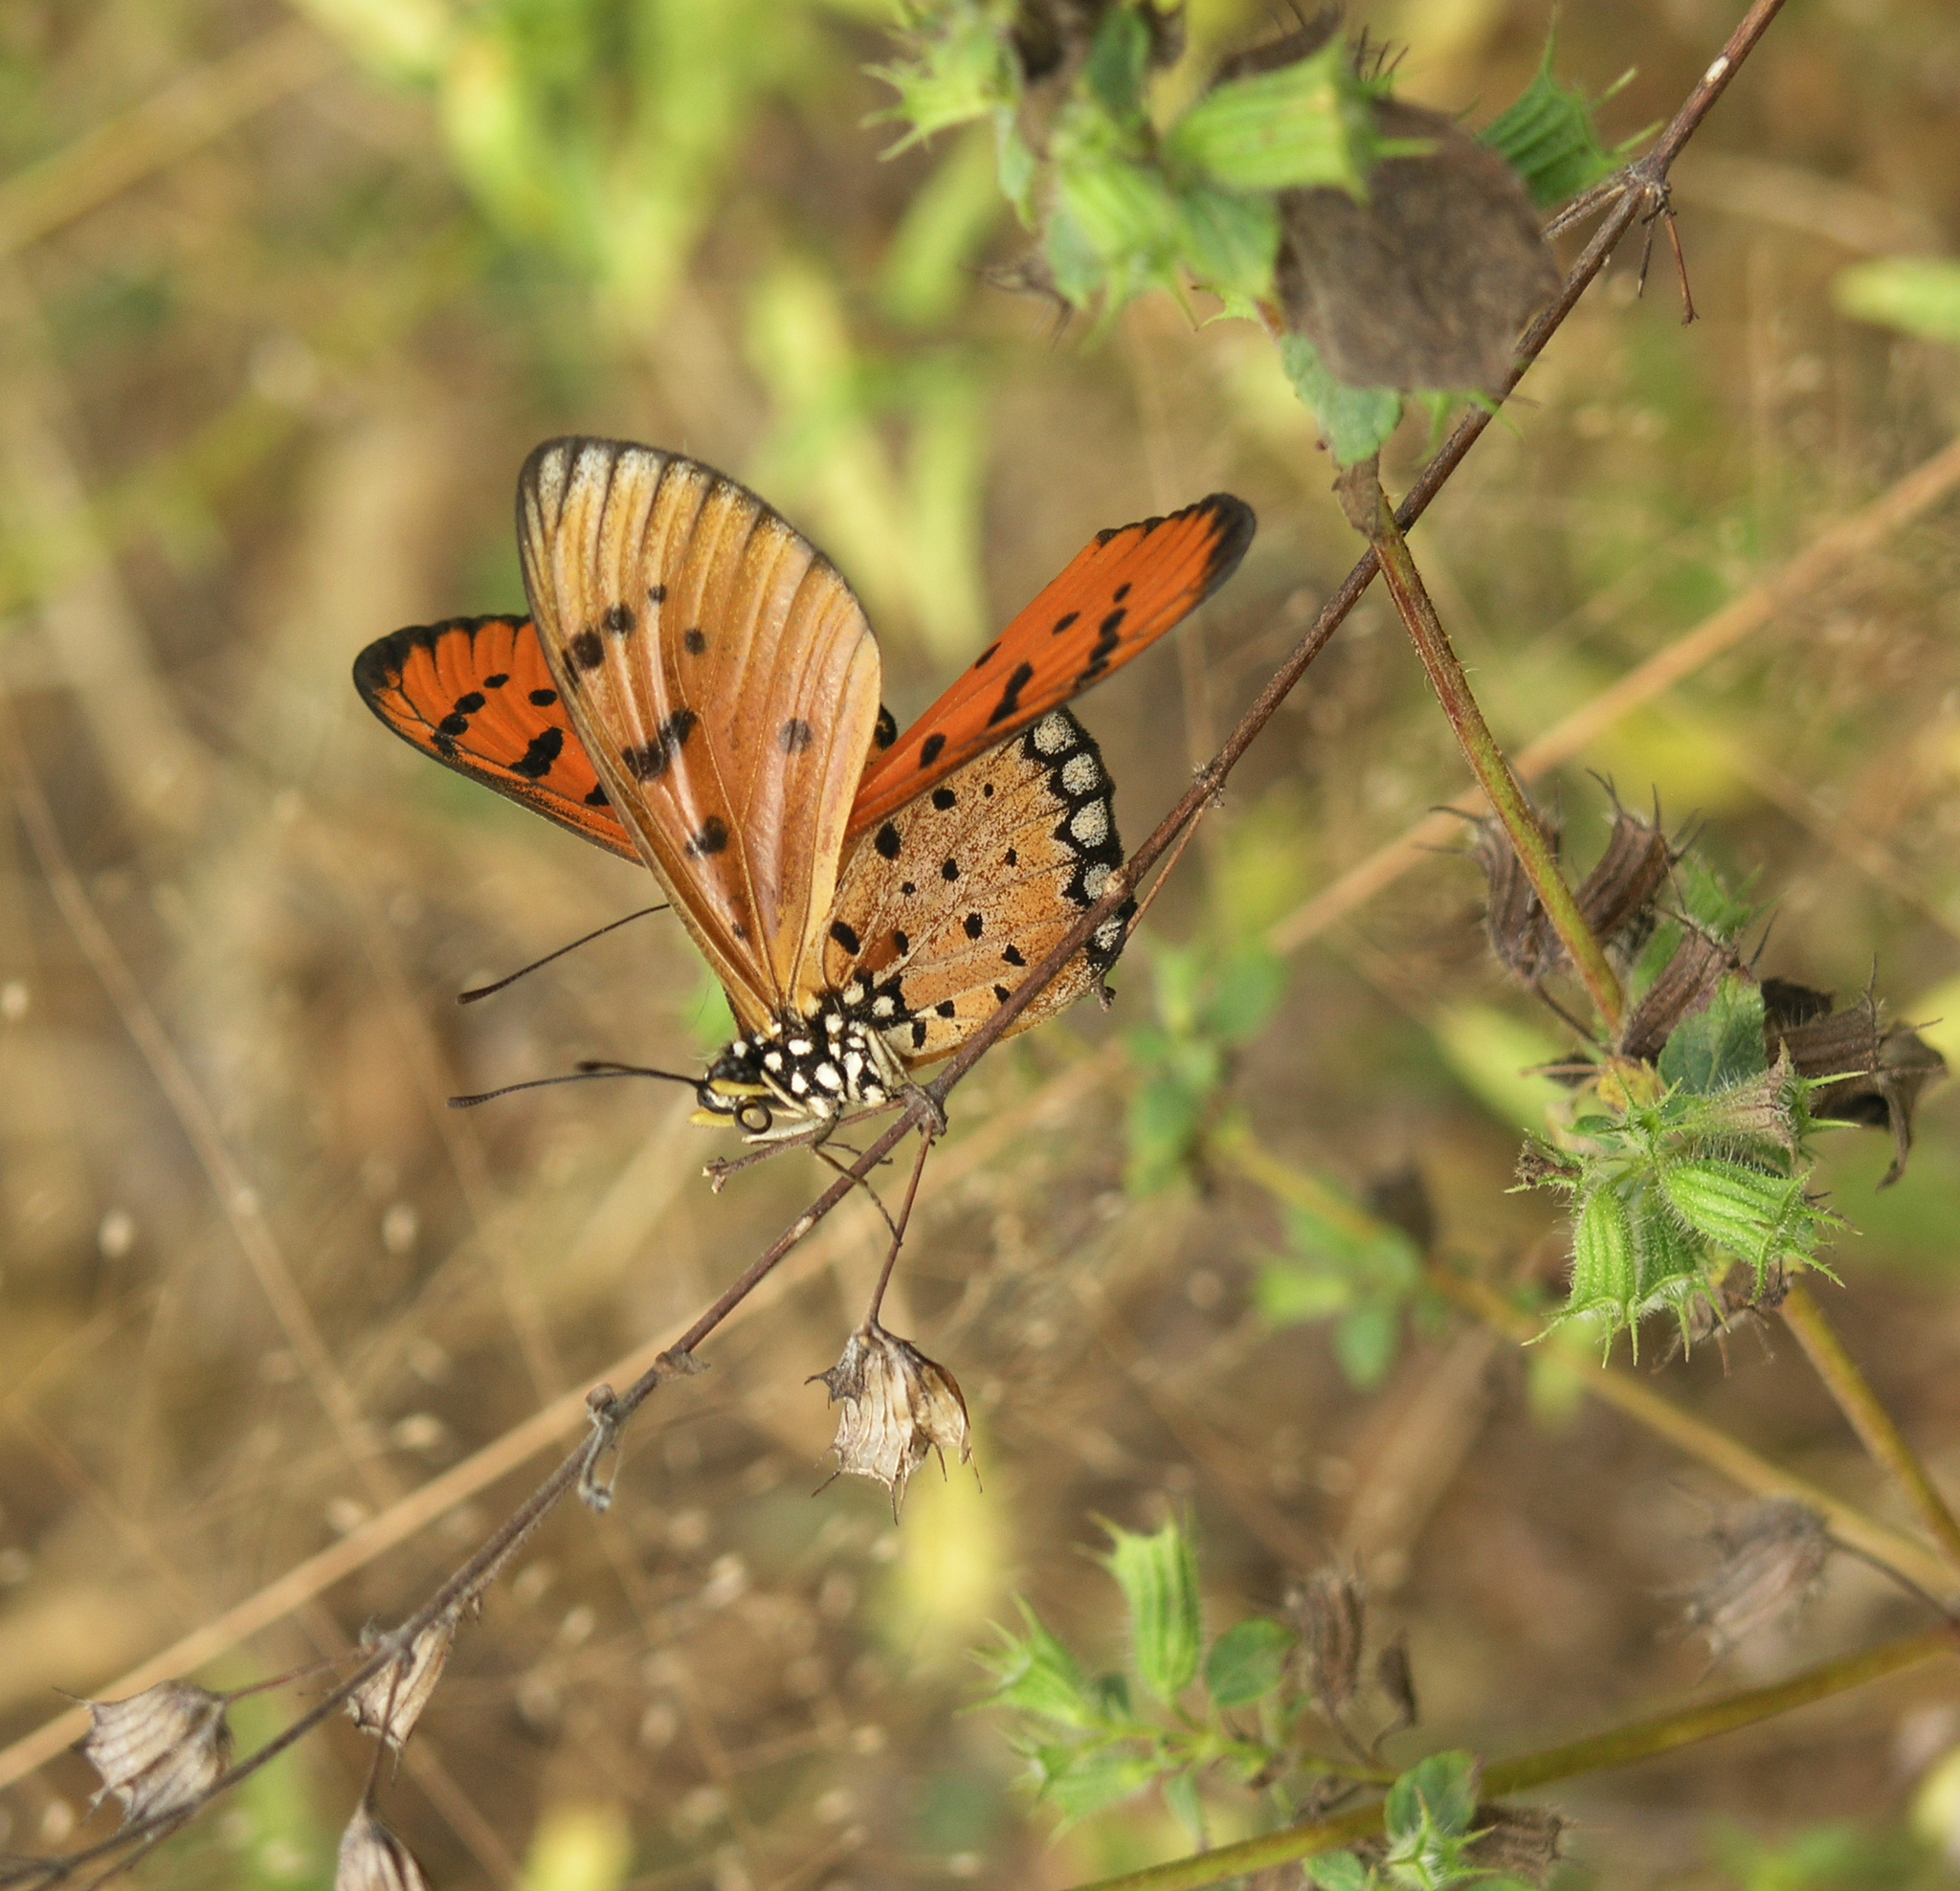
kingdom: Animalia
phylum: Arthropoda
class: Insecta
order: Lepidoptera
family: Nymphalidae
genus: Acraea
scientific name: Acraea terpsicore
